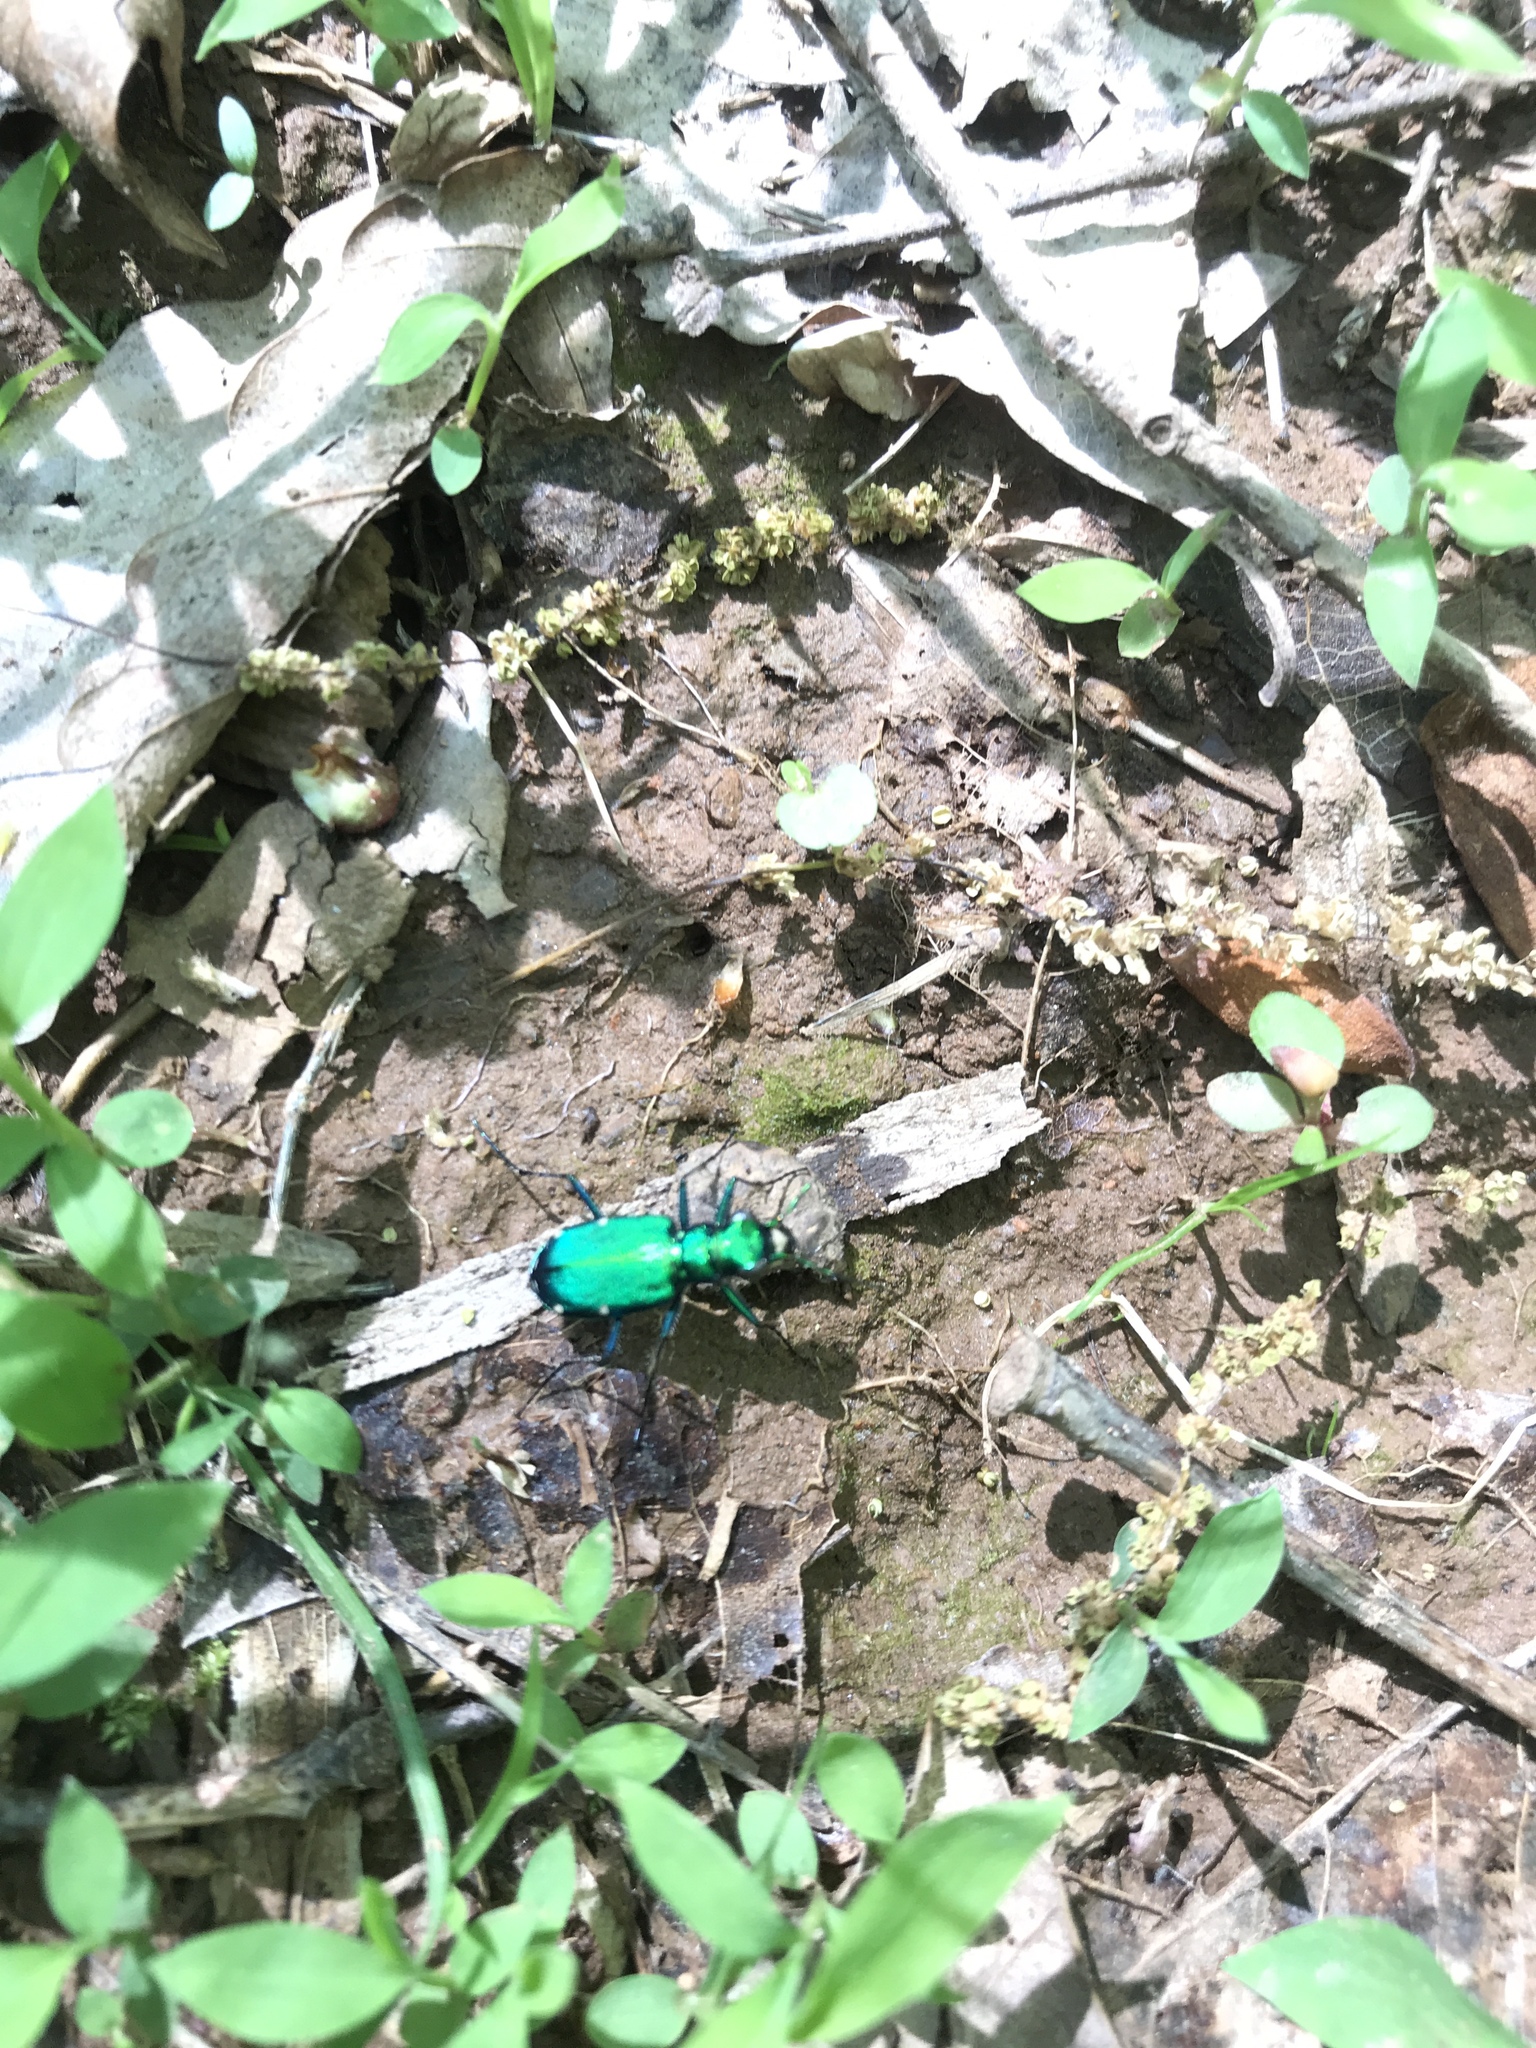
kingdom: Animalia
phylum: Arthropoda
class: Insecta
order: Coleoptera
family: Carabidae
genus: Cicindela
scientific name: Cicindela sexguttata
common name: Six-spotted tiger beetle
